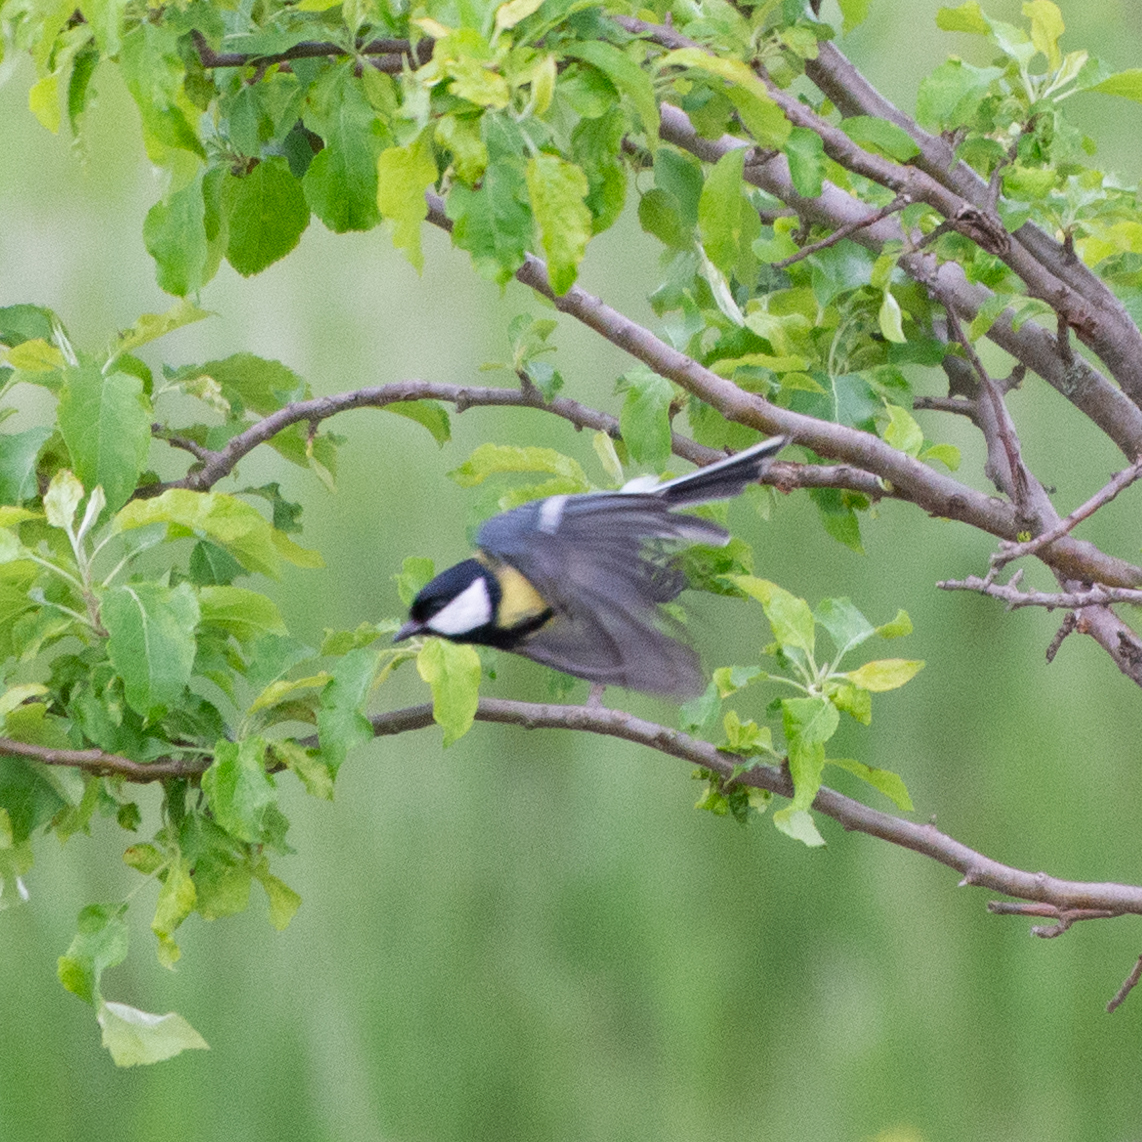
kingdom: Animalia
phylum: Chordata
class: Aves
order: Passeriformes
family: Paridae
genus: Parus
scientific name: Parus major
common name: Great tit
